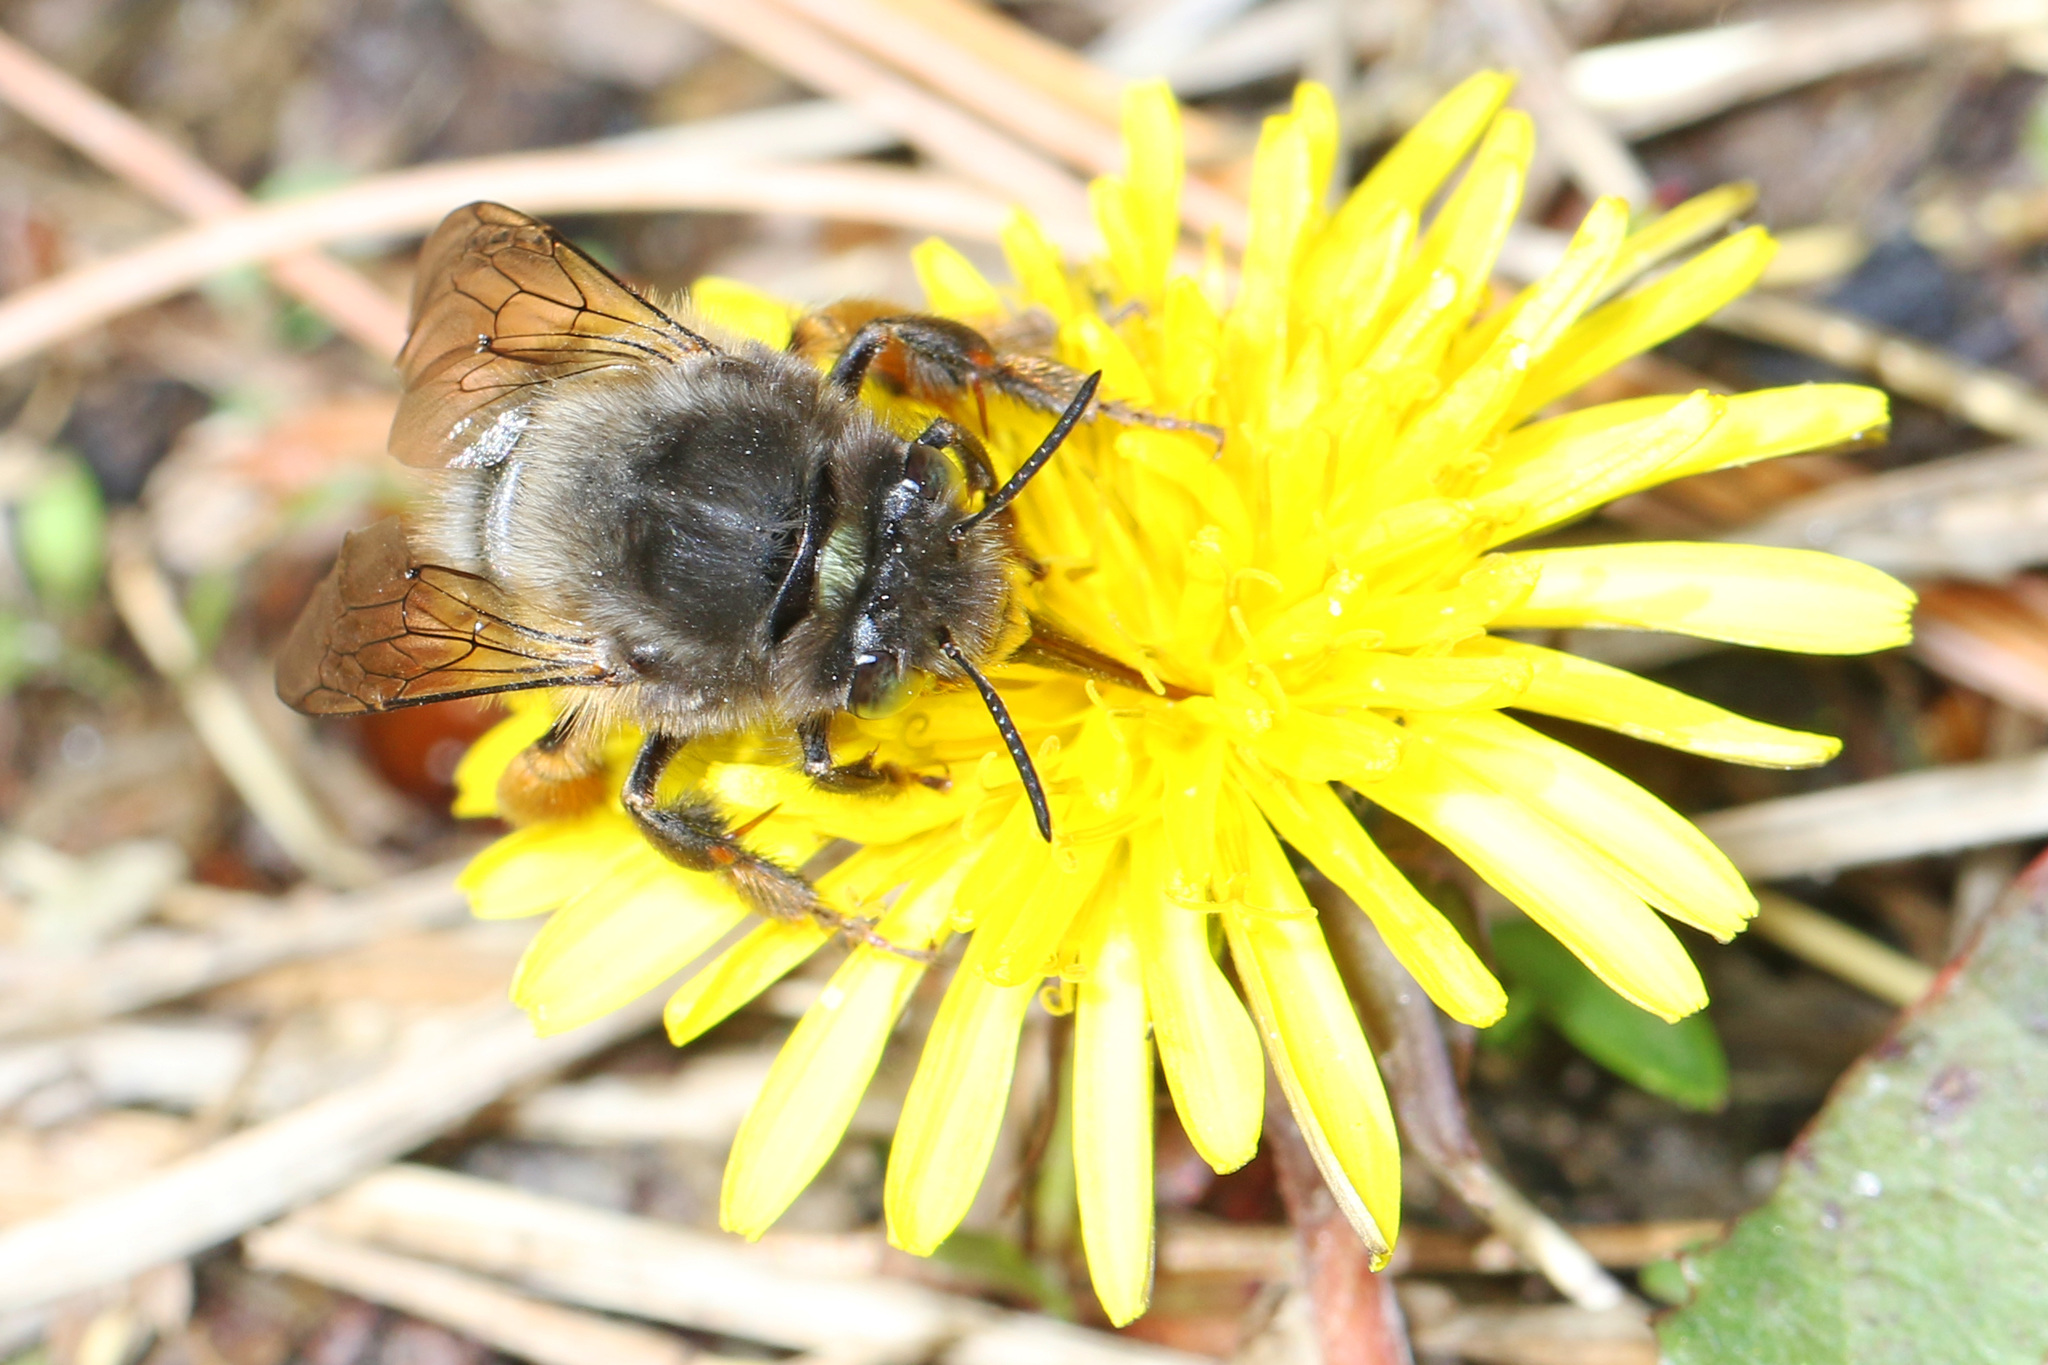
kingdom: Animalia
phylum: Arthropoda
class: Insecta
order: Hymenoptera
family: Apidae
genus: Anthophora
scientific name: Anthophora villosula
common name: Asian shaggy digger
